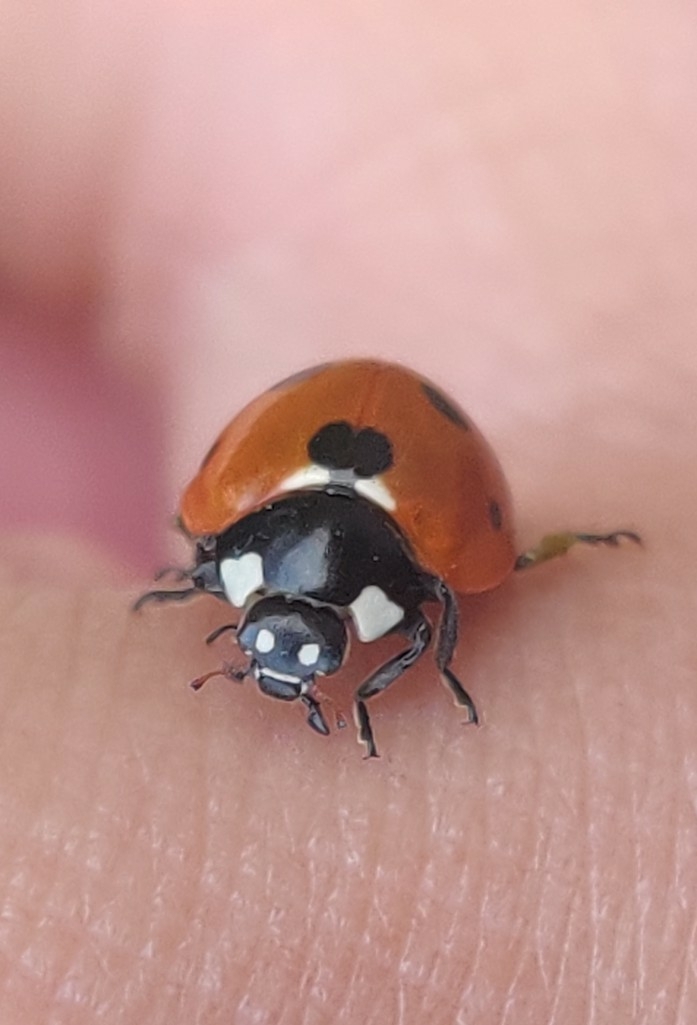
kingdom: Animalia
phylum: Arthropoda
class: Insecta
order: Coleoptera
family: Coccinellidae
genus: Coccinella
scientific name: Coccinella septempunctata
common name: Sevenspotted lady beetle
